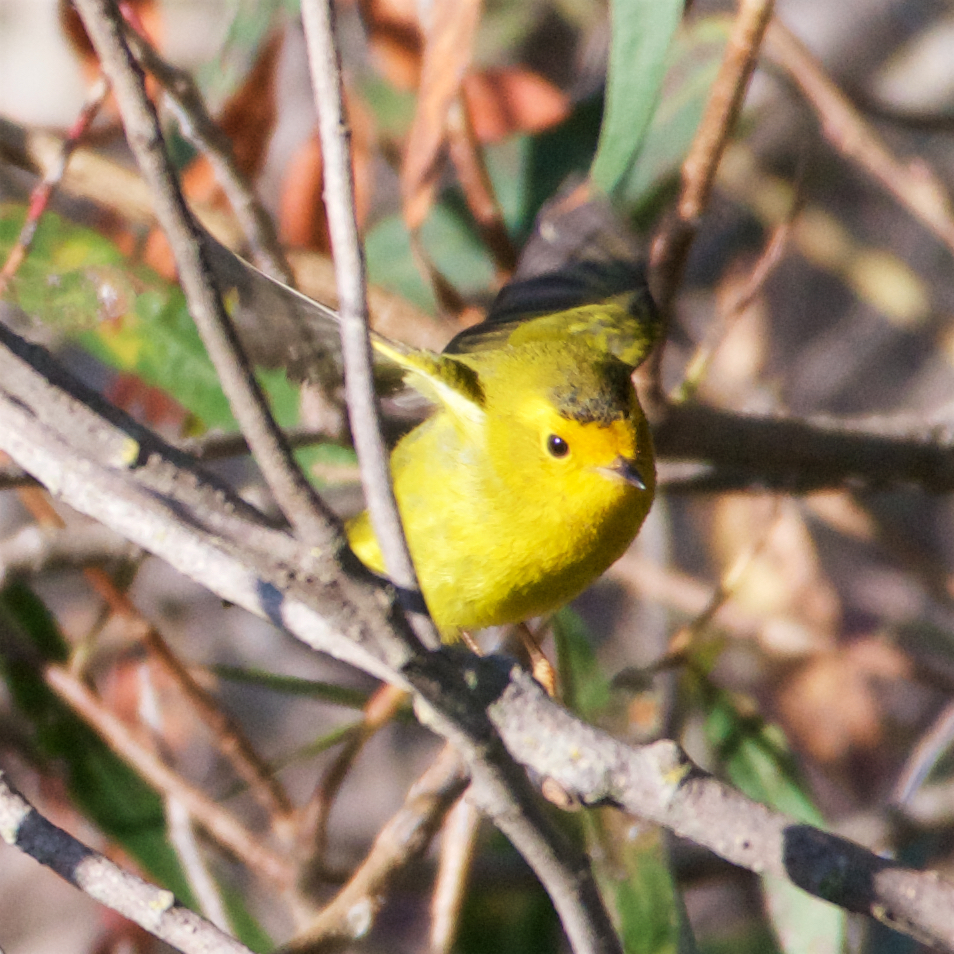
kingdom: Animalia
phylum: Chordata
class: Aves
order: Passeriformes
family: Parulidae
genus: Cardellina
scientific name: Cardellina pusilla
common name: Wilson's warbler
